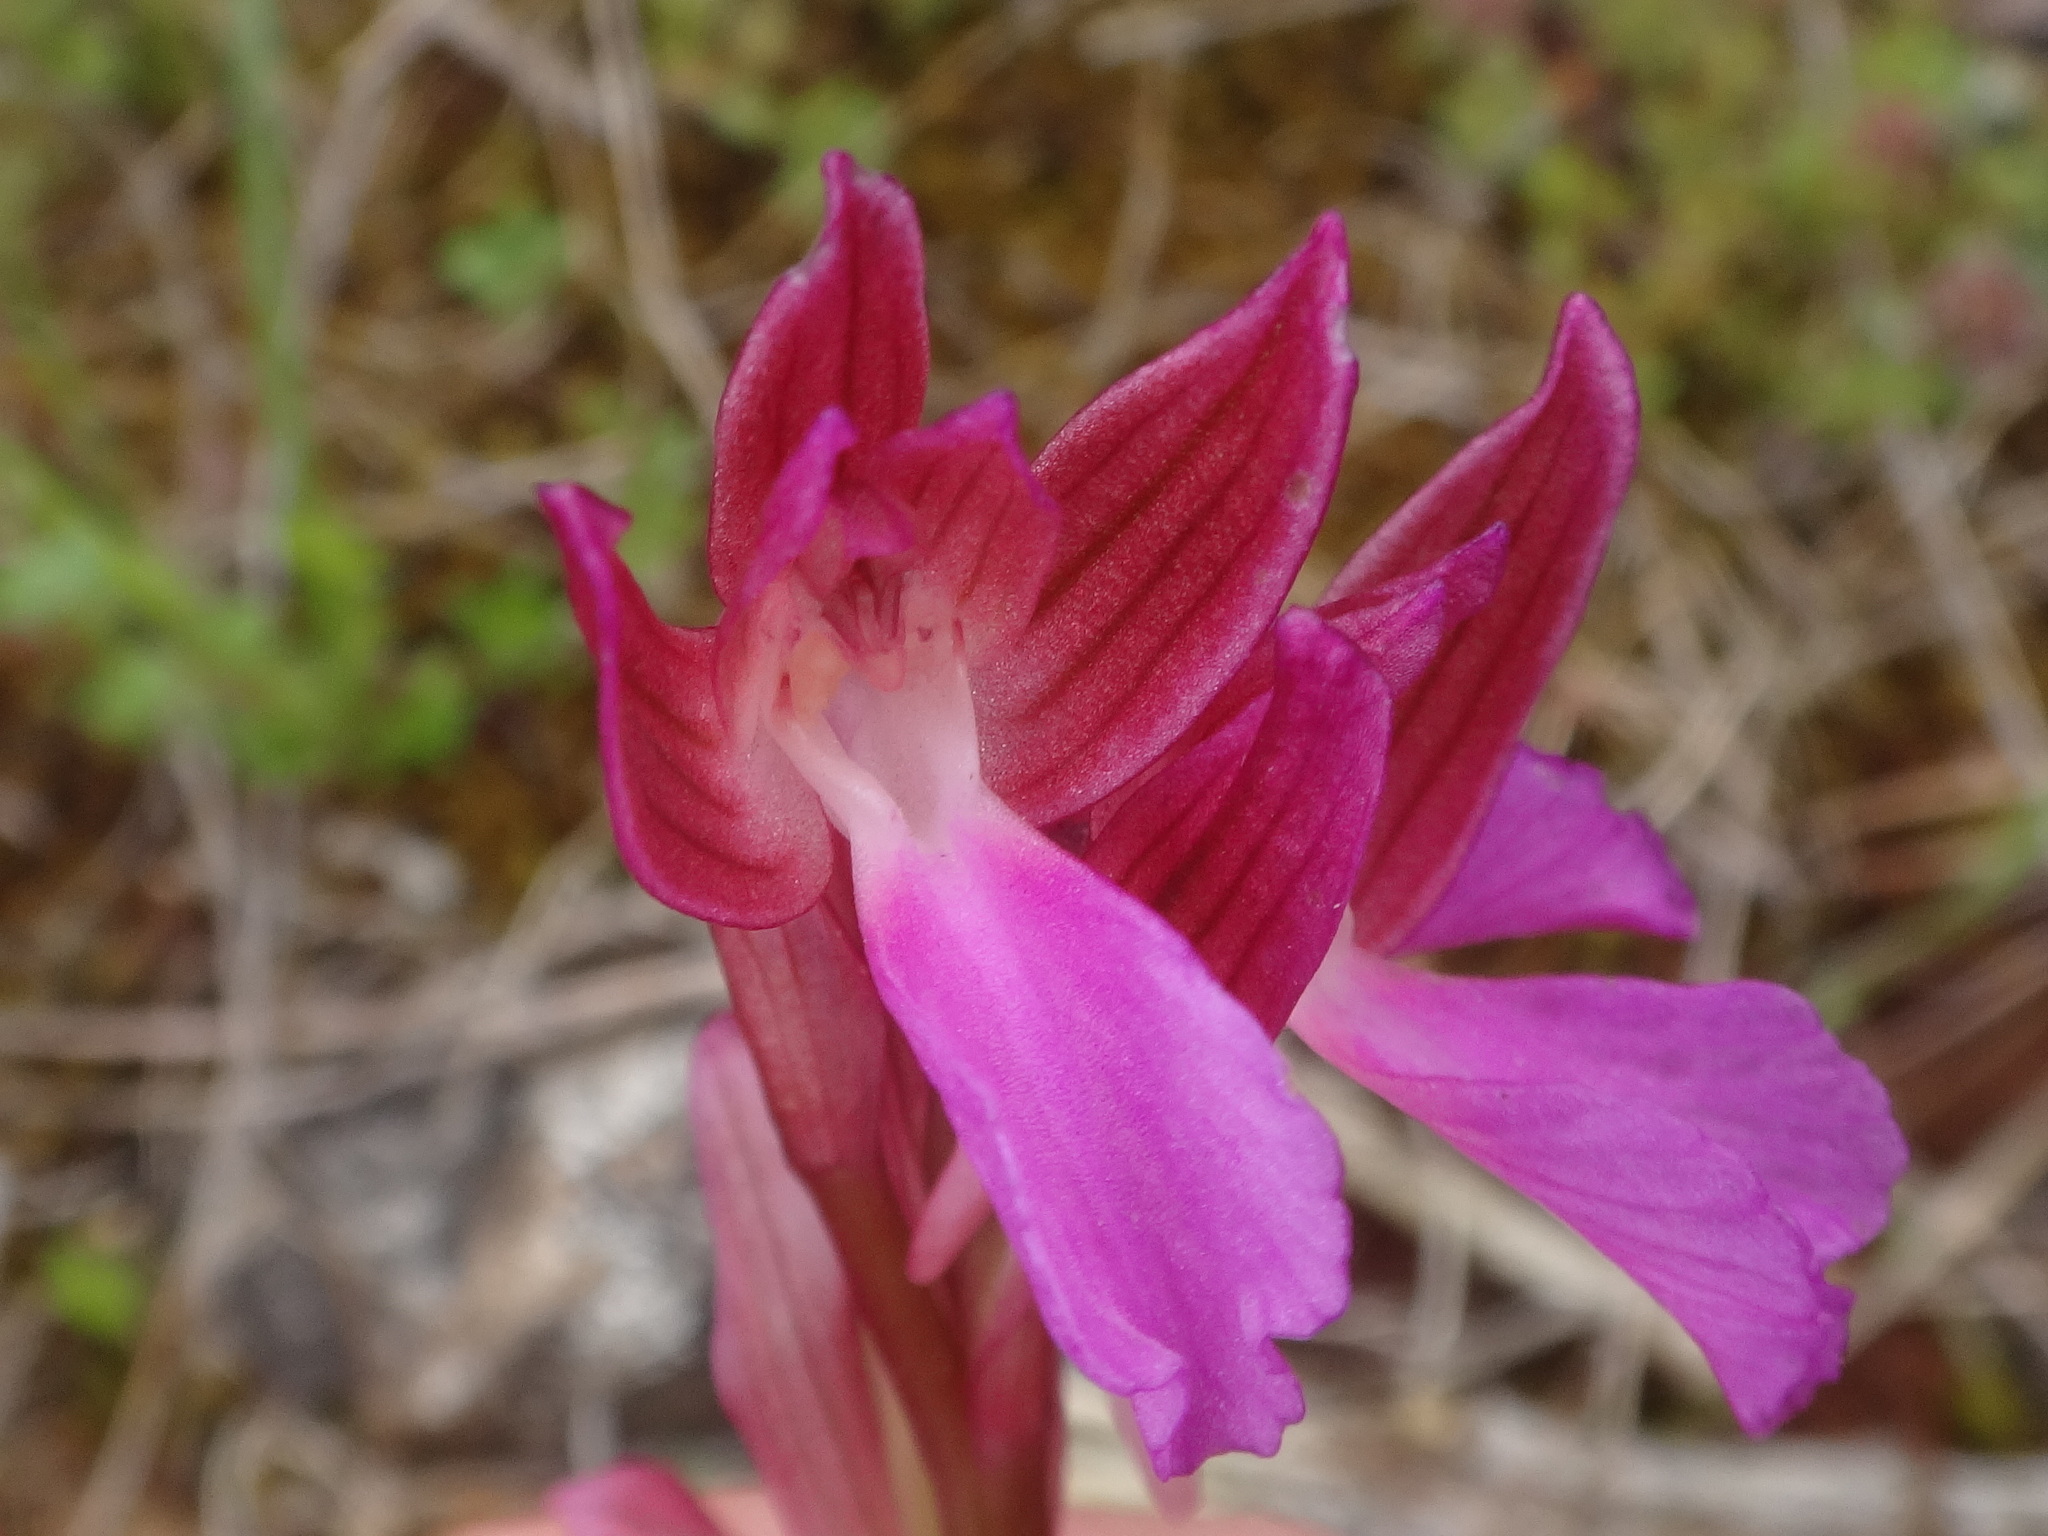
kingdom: Plantae
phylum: Tracheophyta
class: Liliopsida
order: Asparagales
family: Orchidaceae
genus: Anacamptis
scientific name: Anacamptis papilionacea
